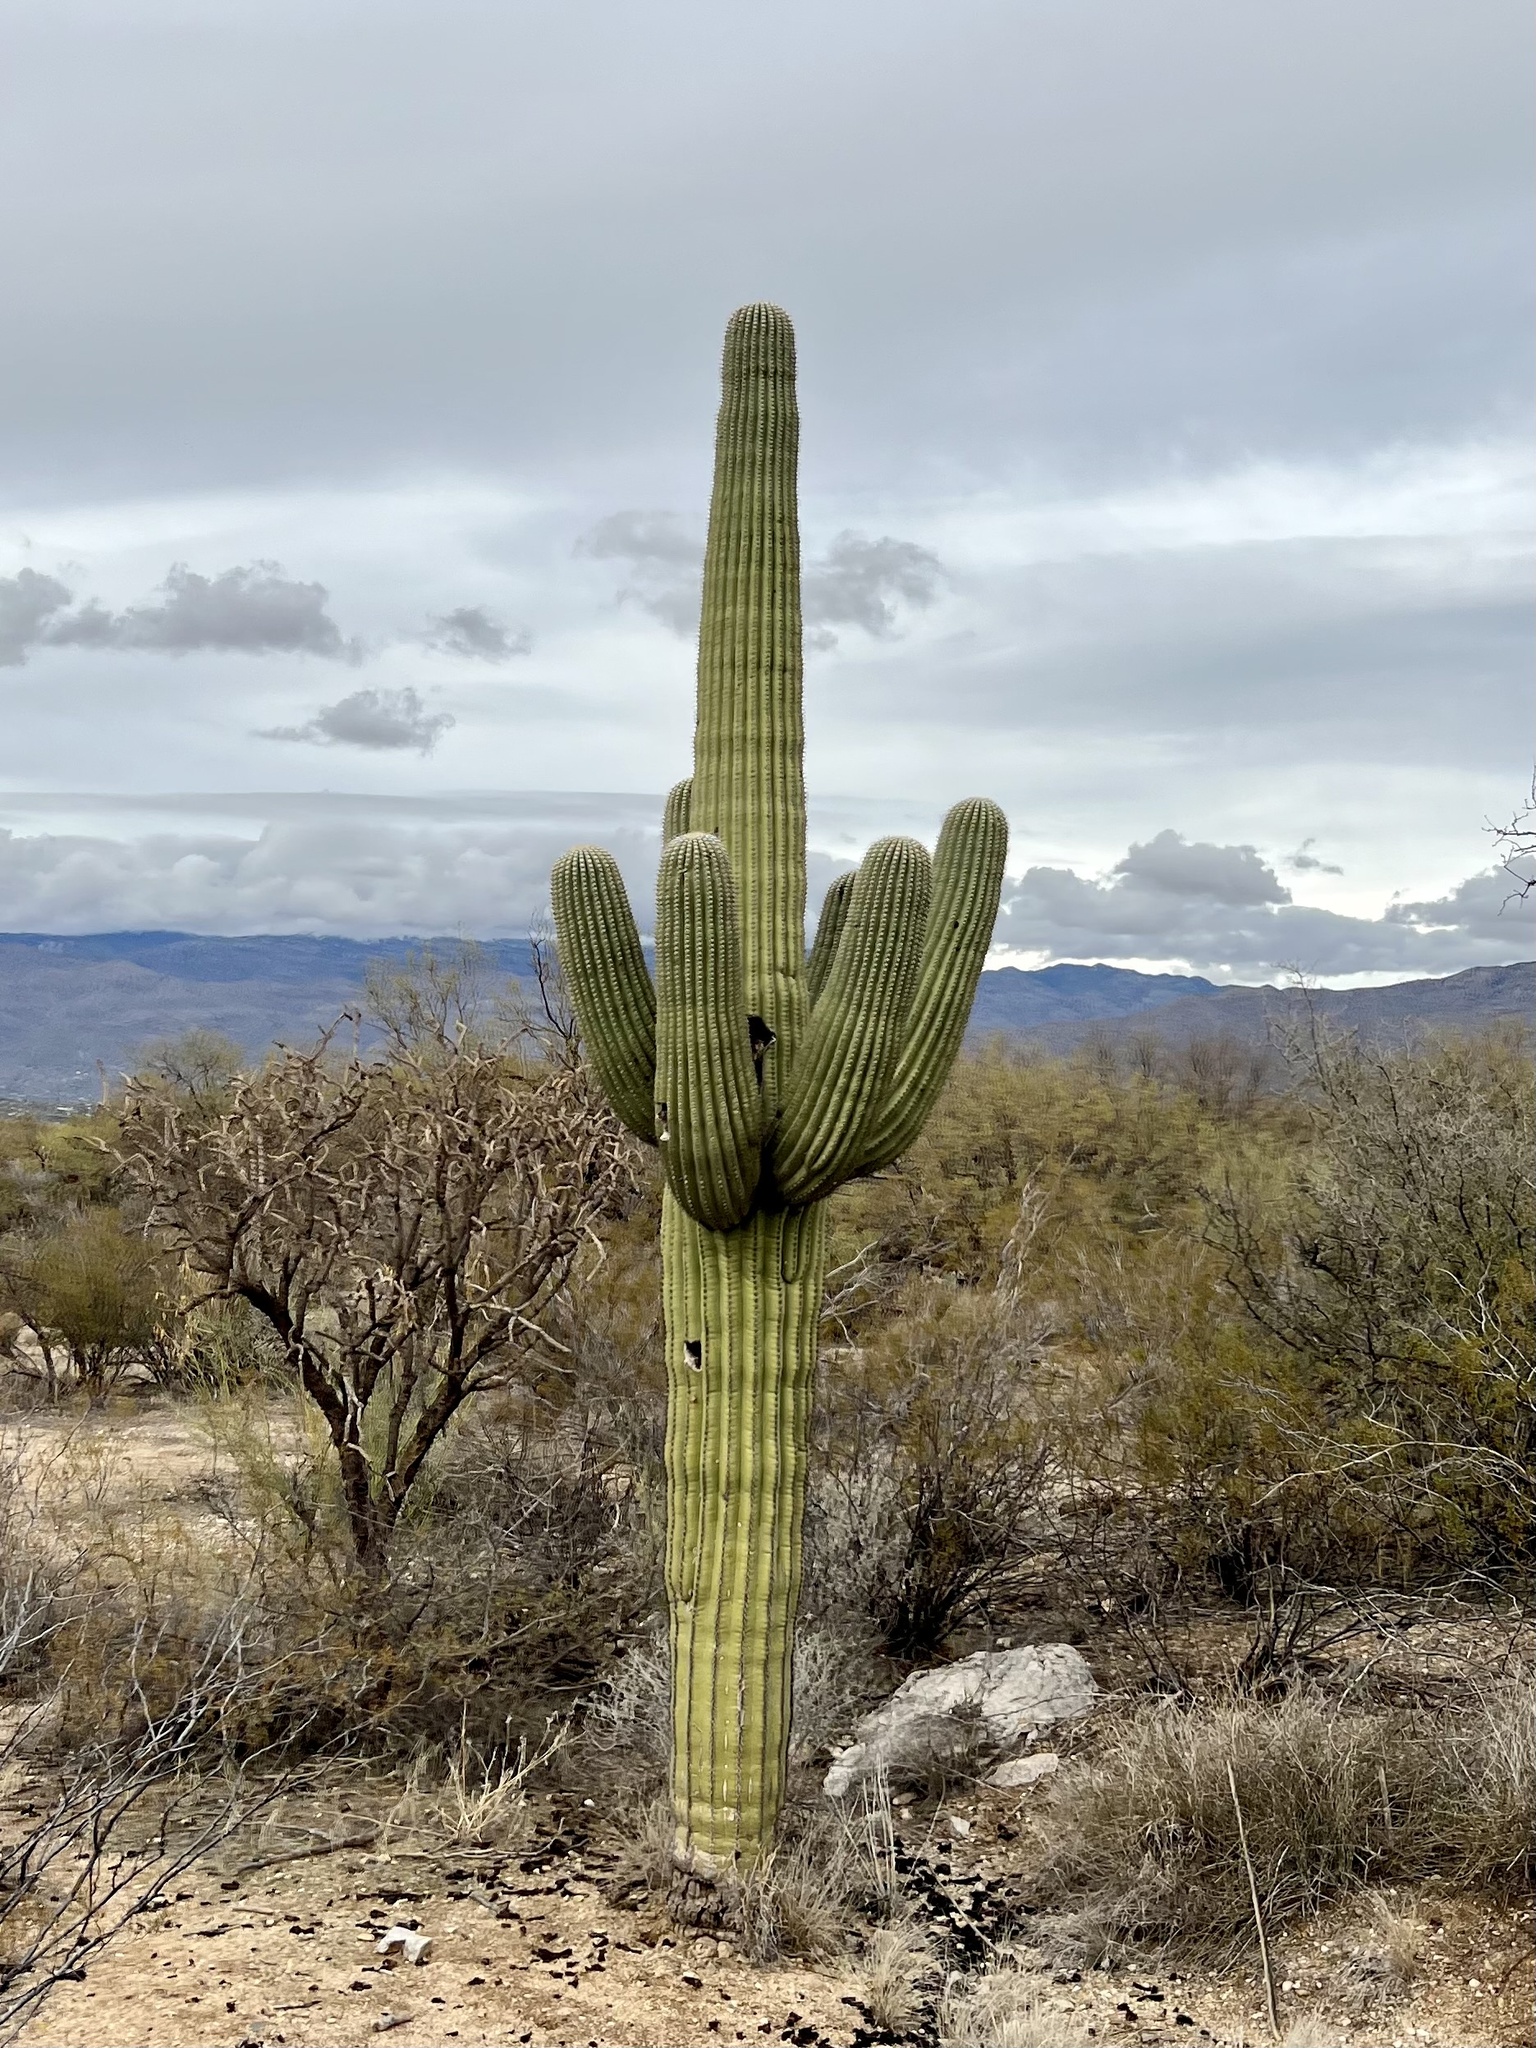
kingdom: Plantae
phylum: Tracheophyta
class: Magnoliopsida
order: Caryophyllales
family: Cactaceae
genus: Carnegiea
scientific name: Carnegiea gigantea
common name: Saguaro
